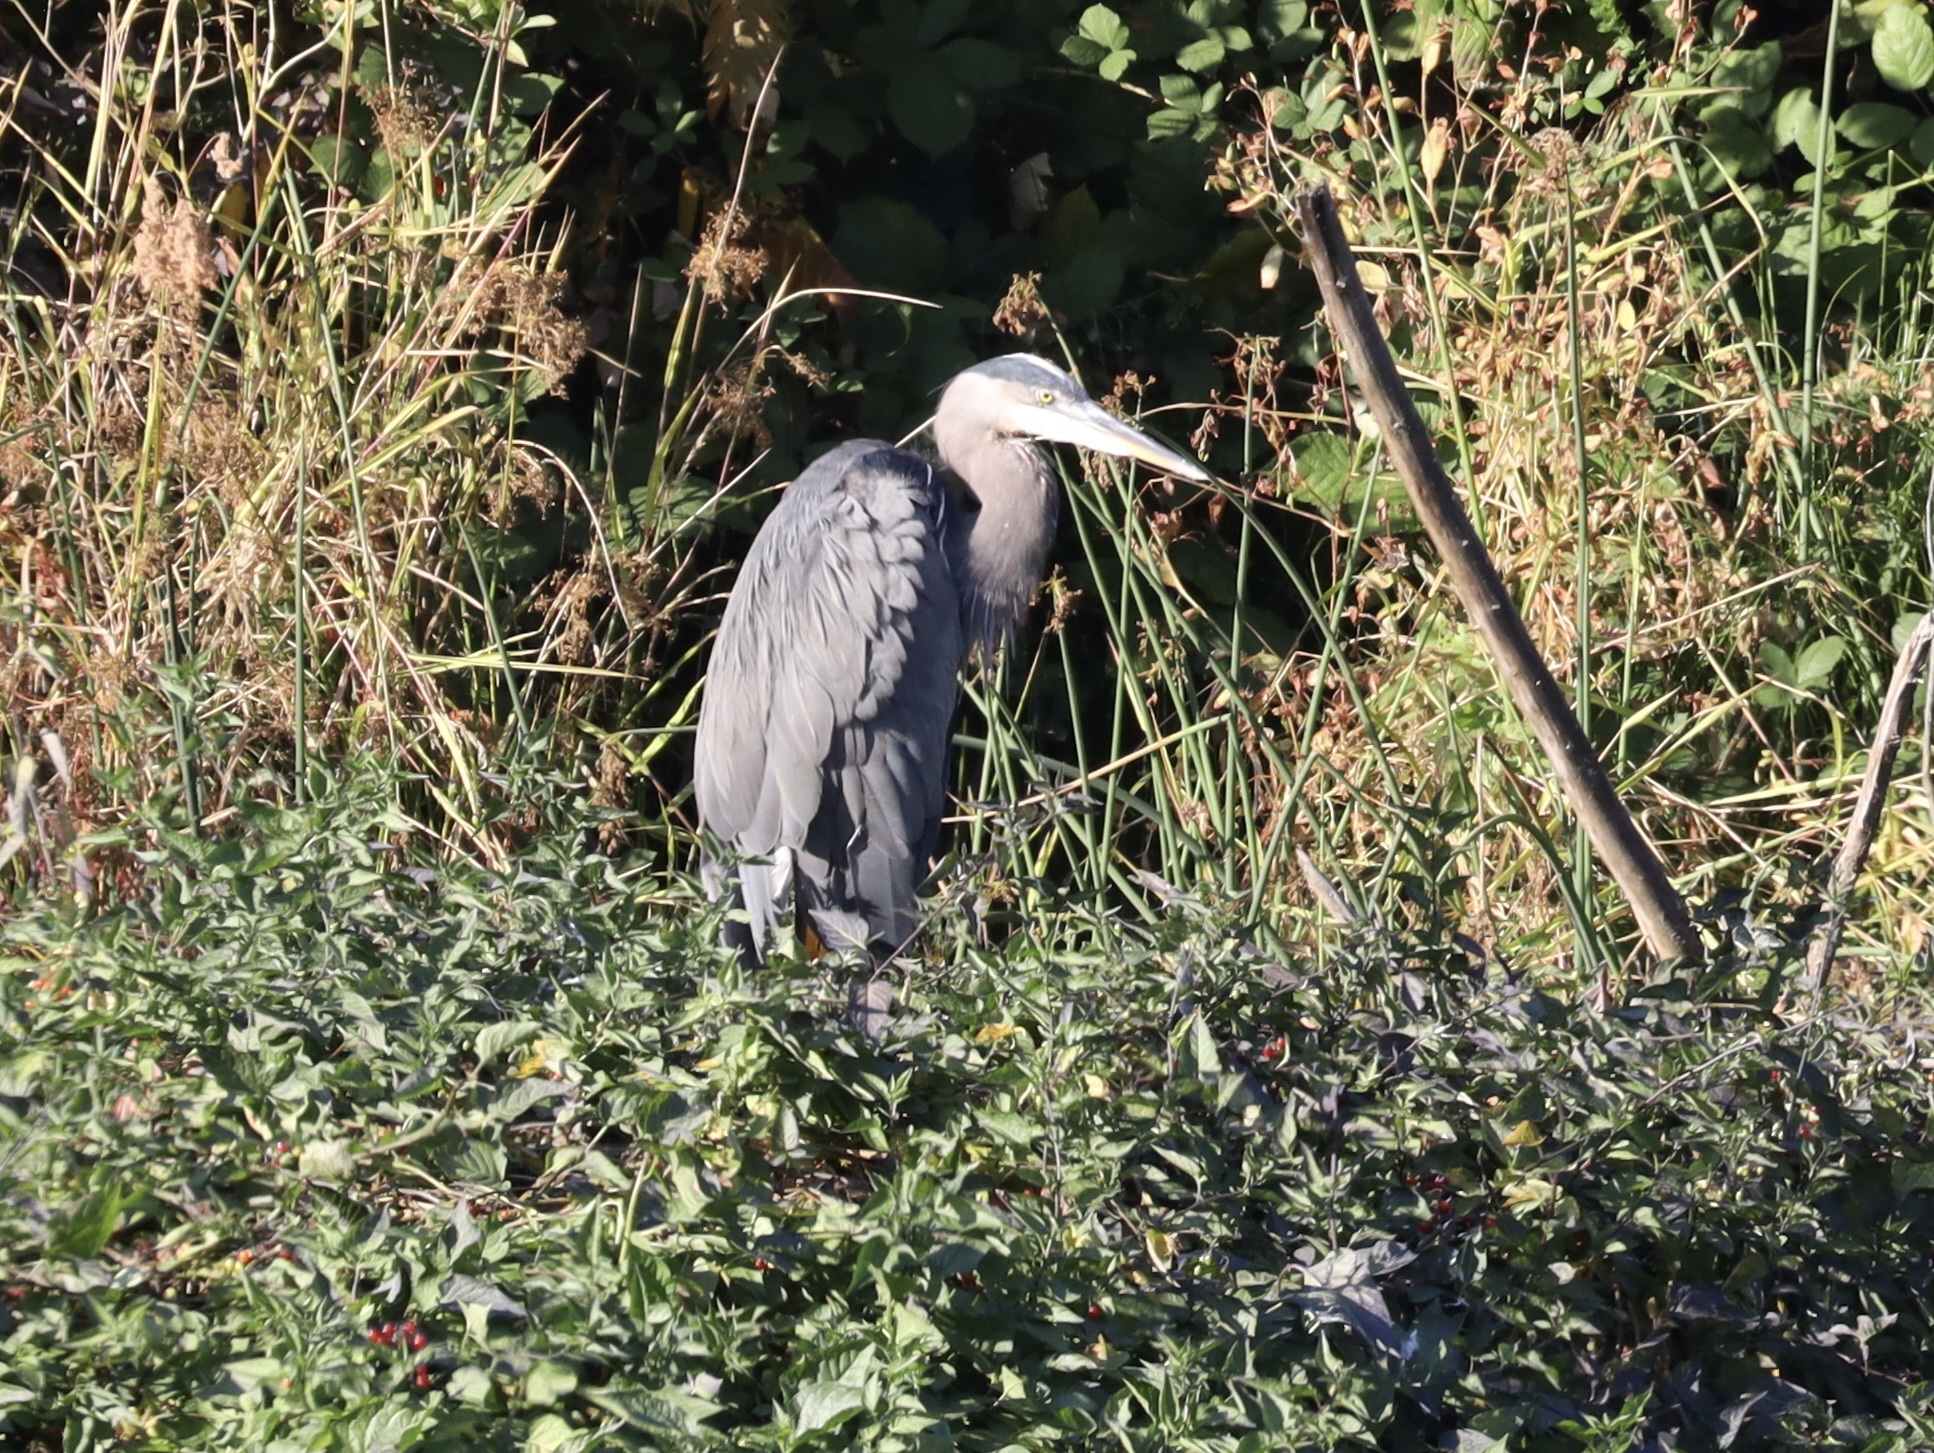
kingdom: Animalia
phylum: Chordata
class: Aves
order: Pelecaniformes
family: Ardeidae
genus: Ardea
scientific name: Ardea herodias
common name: Great blue heron
